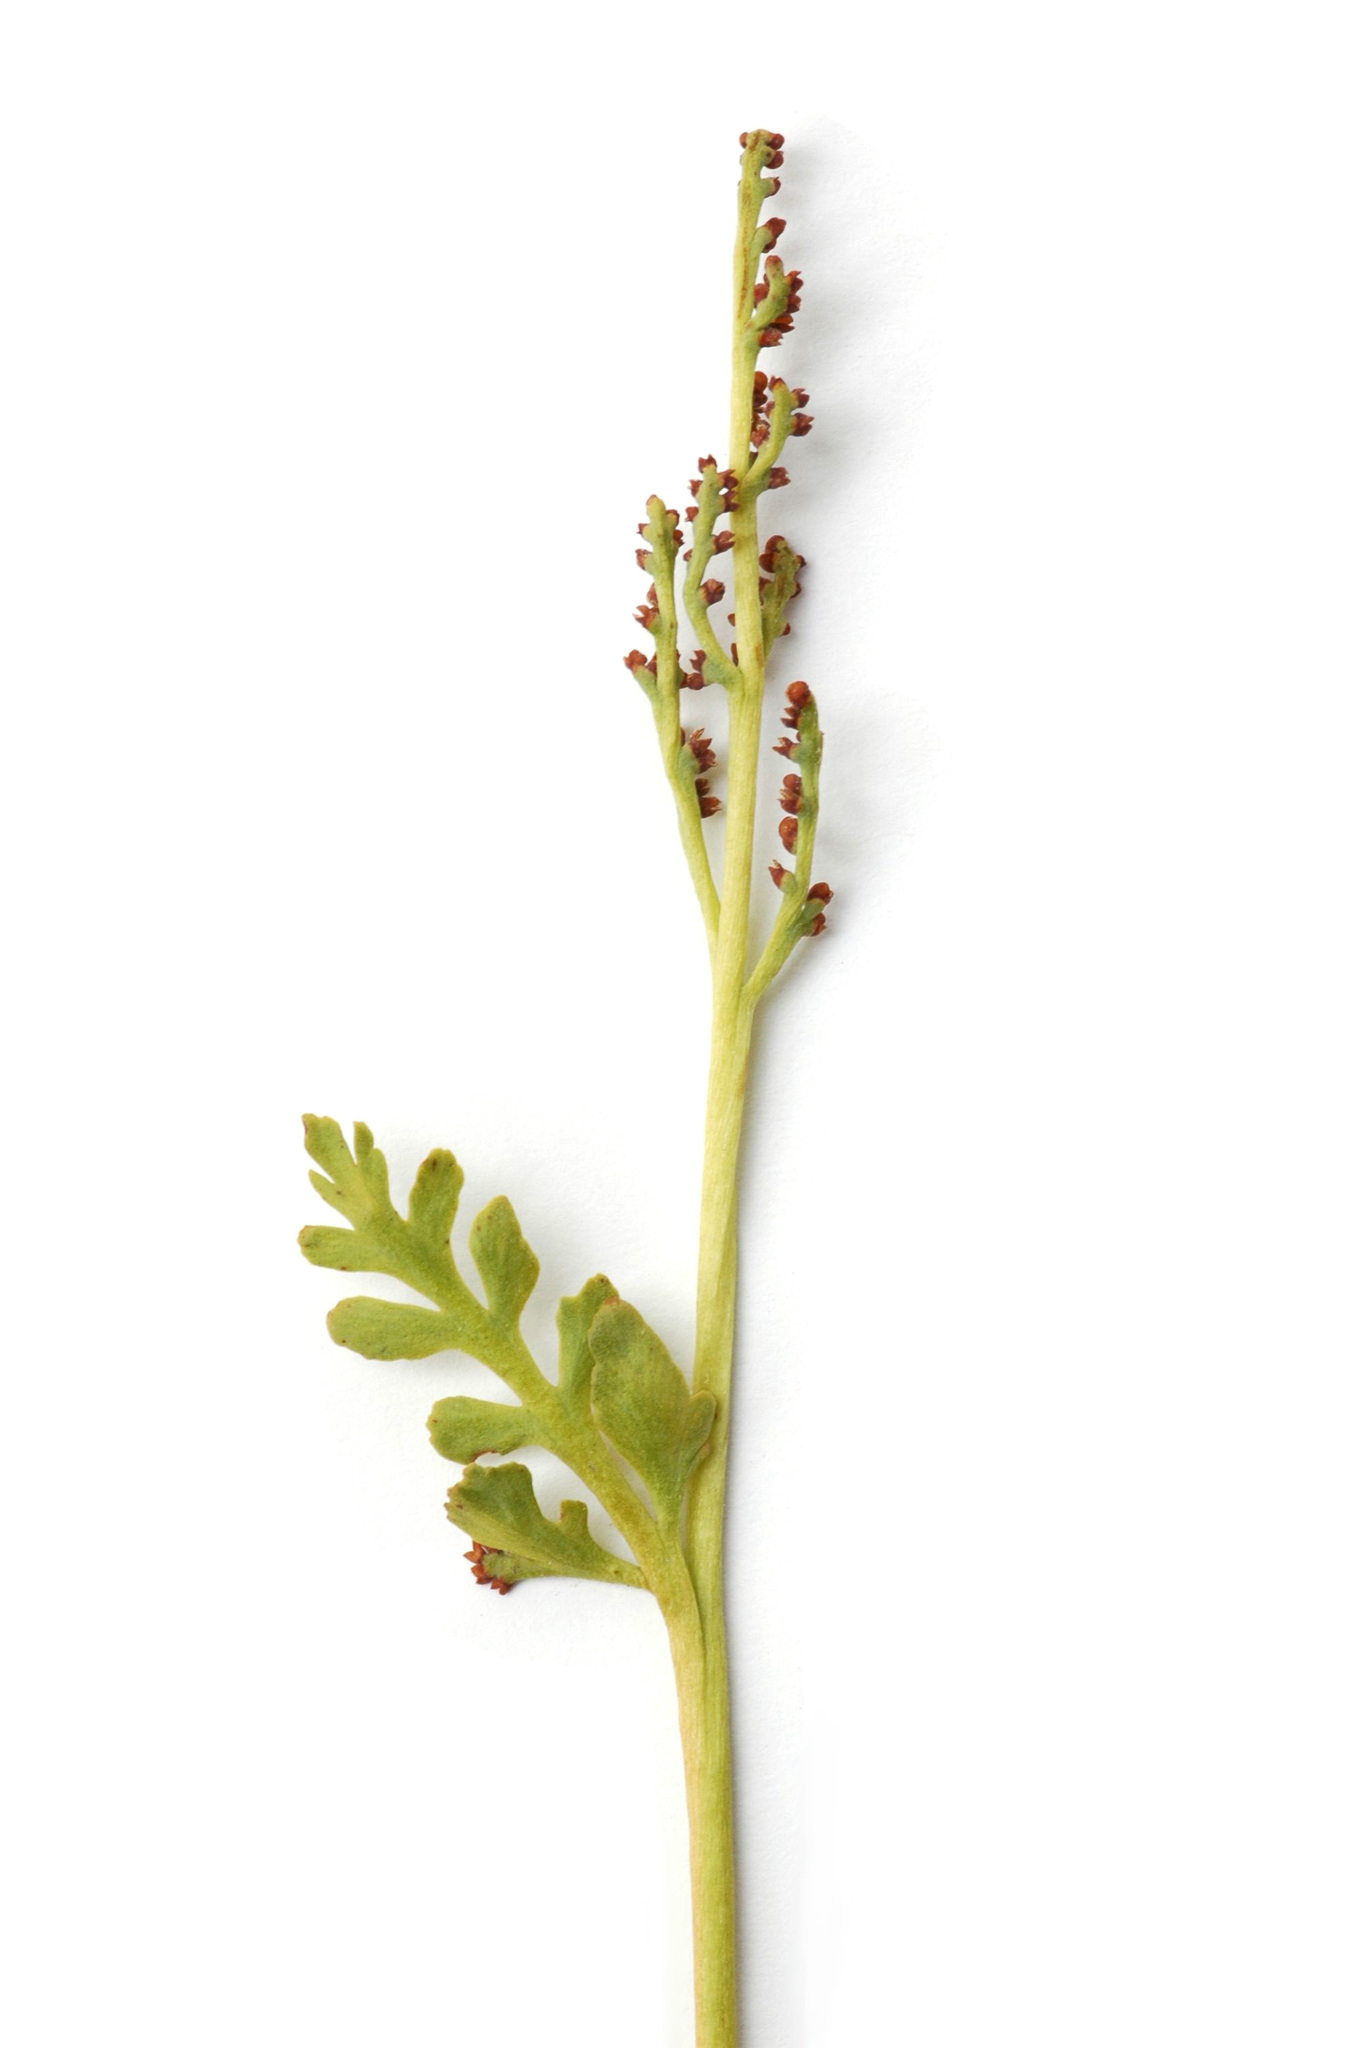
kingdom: Plantae
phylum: Tracheophyta
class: Polypodiopsida
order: Ophioglossales
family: Ophioglossaceae
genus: Botrychium
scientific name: Botrychium michiganense
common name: Michigan moonwort
